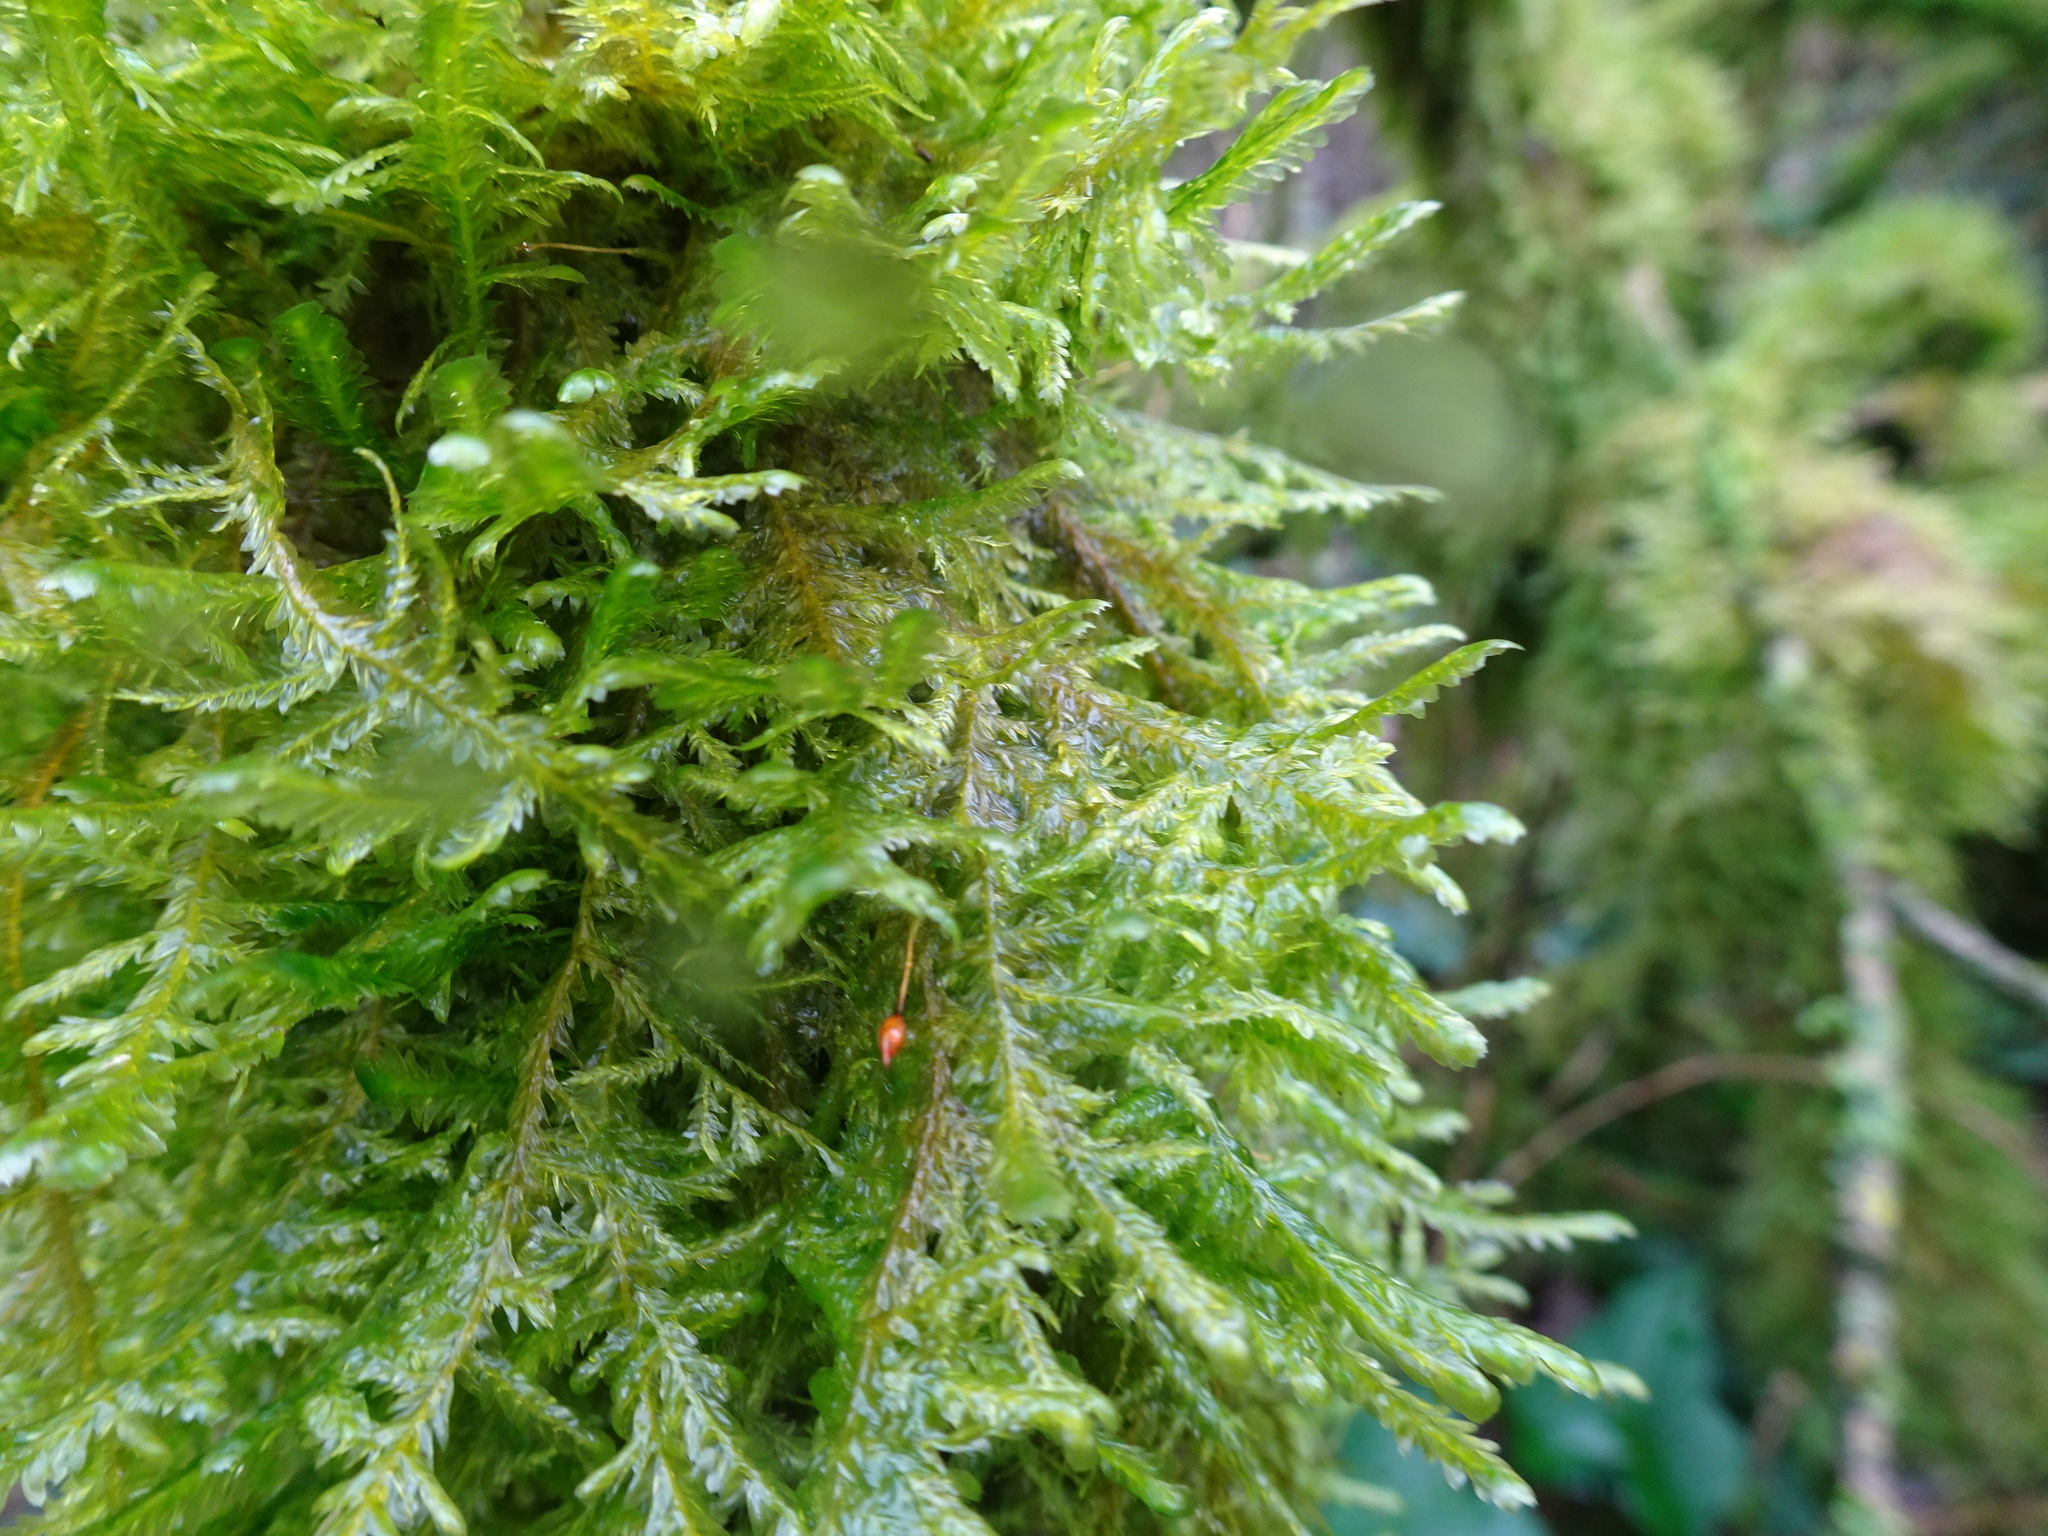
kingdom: Plantae
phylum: Bryophyta
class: Bryopsida
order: Hypnales
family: Neckeraceae
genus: Alleniella
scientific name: Alleniella complanata
